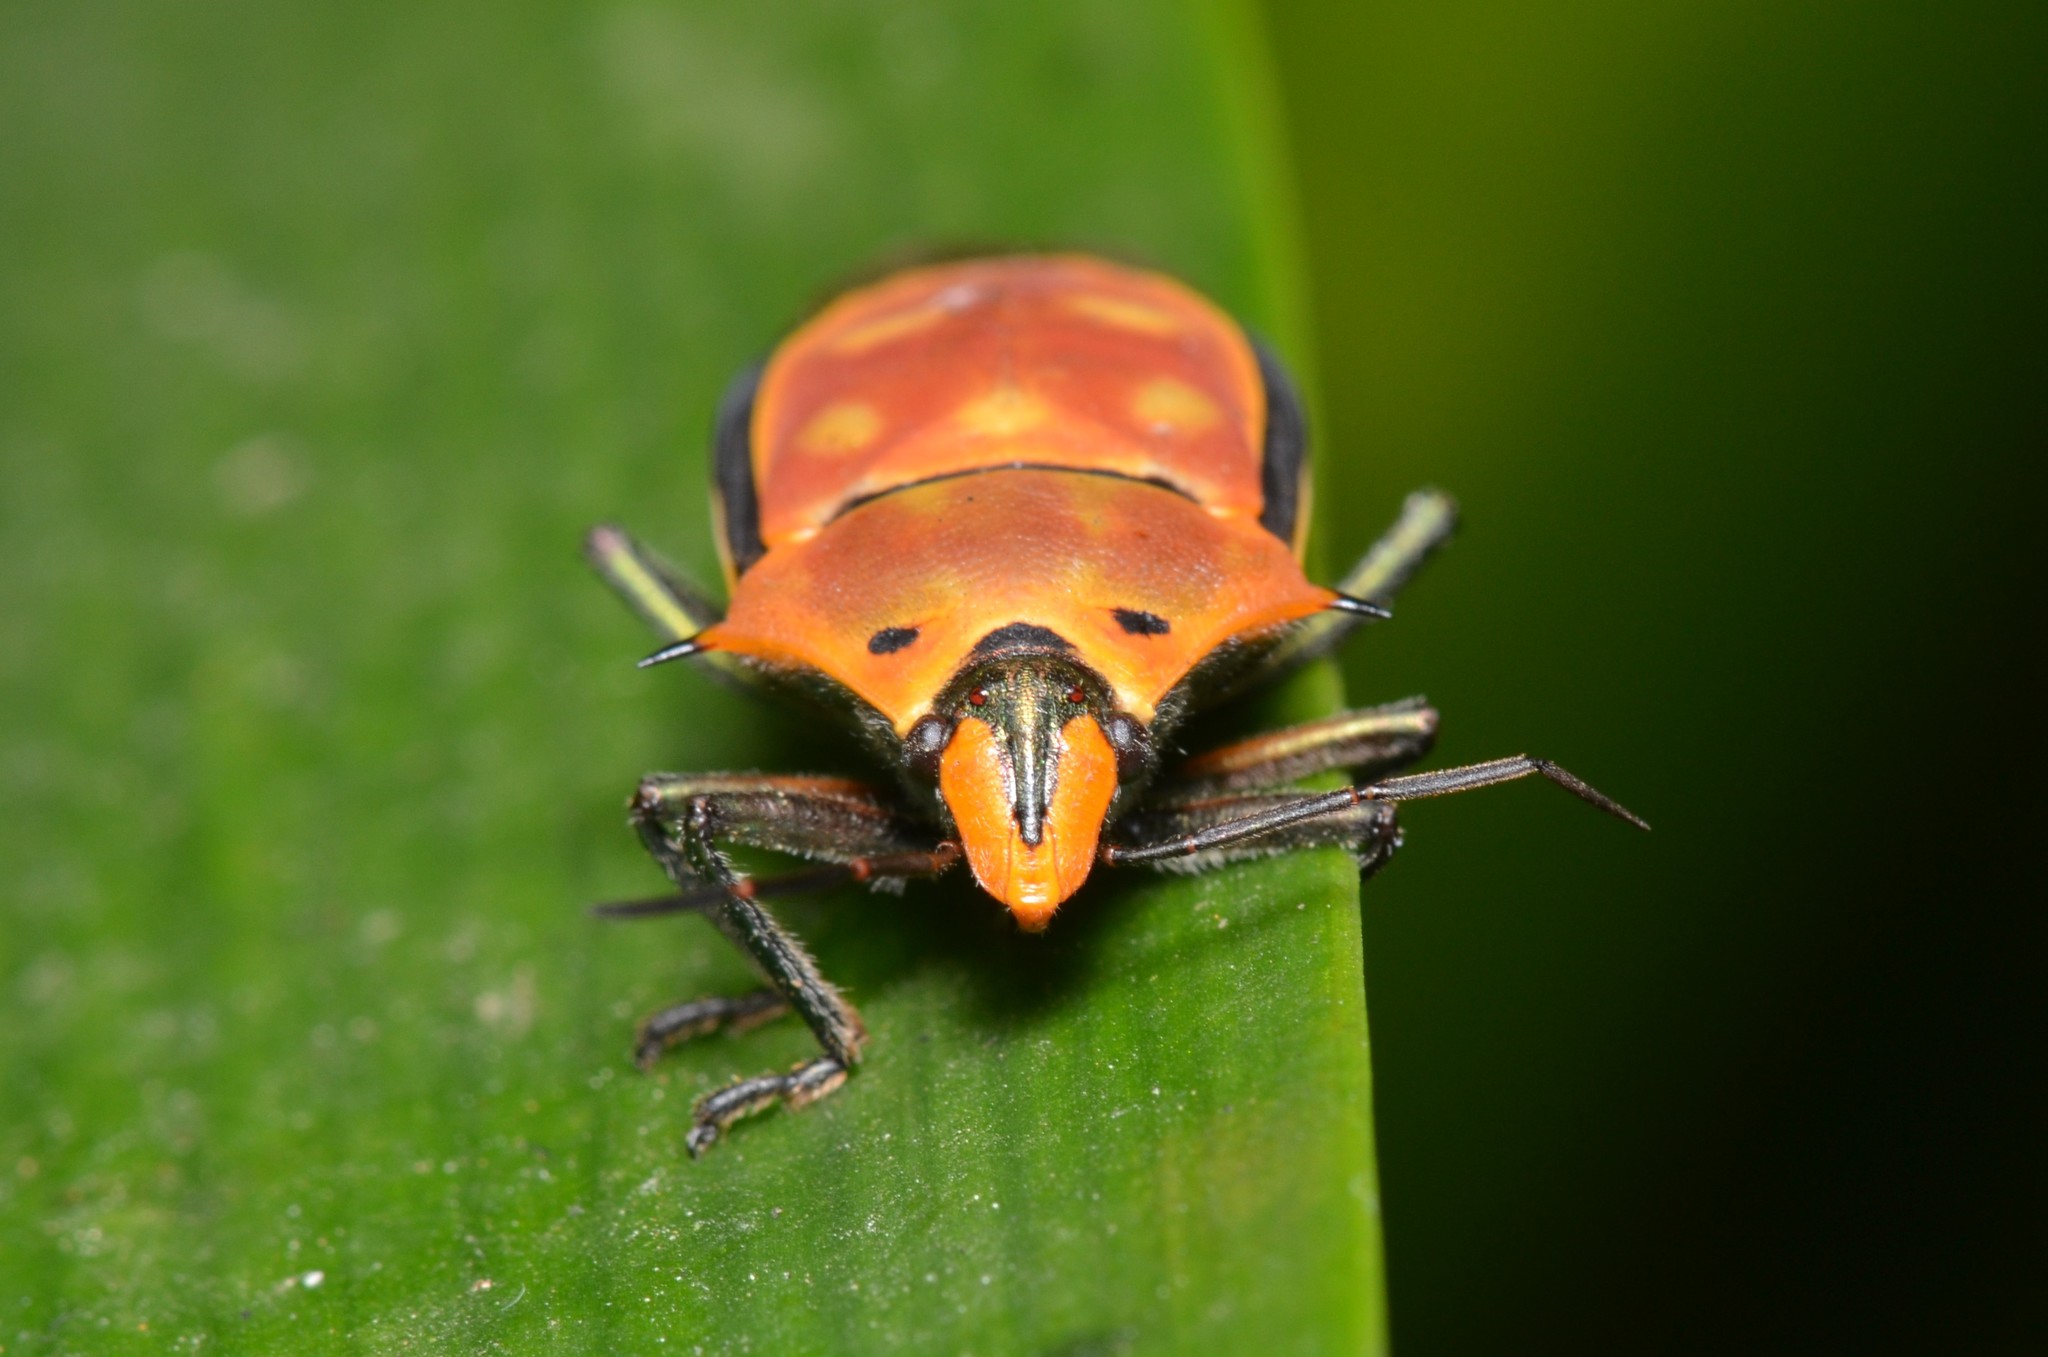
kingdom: Animalia
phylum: Arthropoda
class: Insecta
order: Hemiptera
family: Scutelleridae
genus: Cantao
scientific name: Cantao ocellatus
